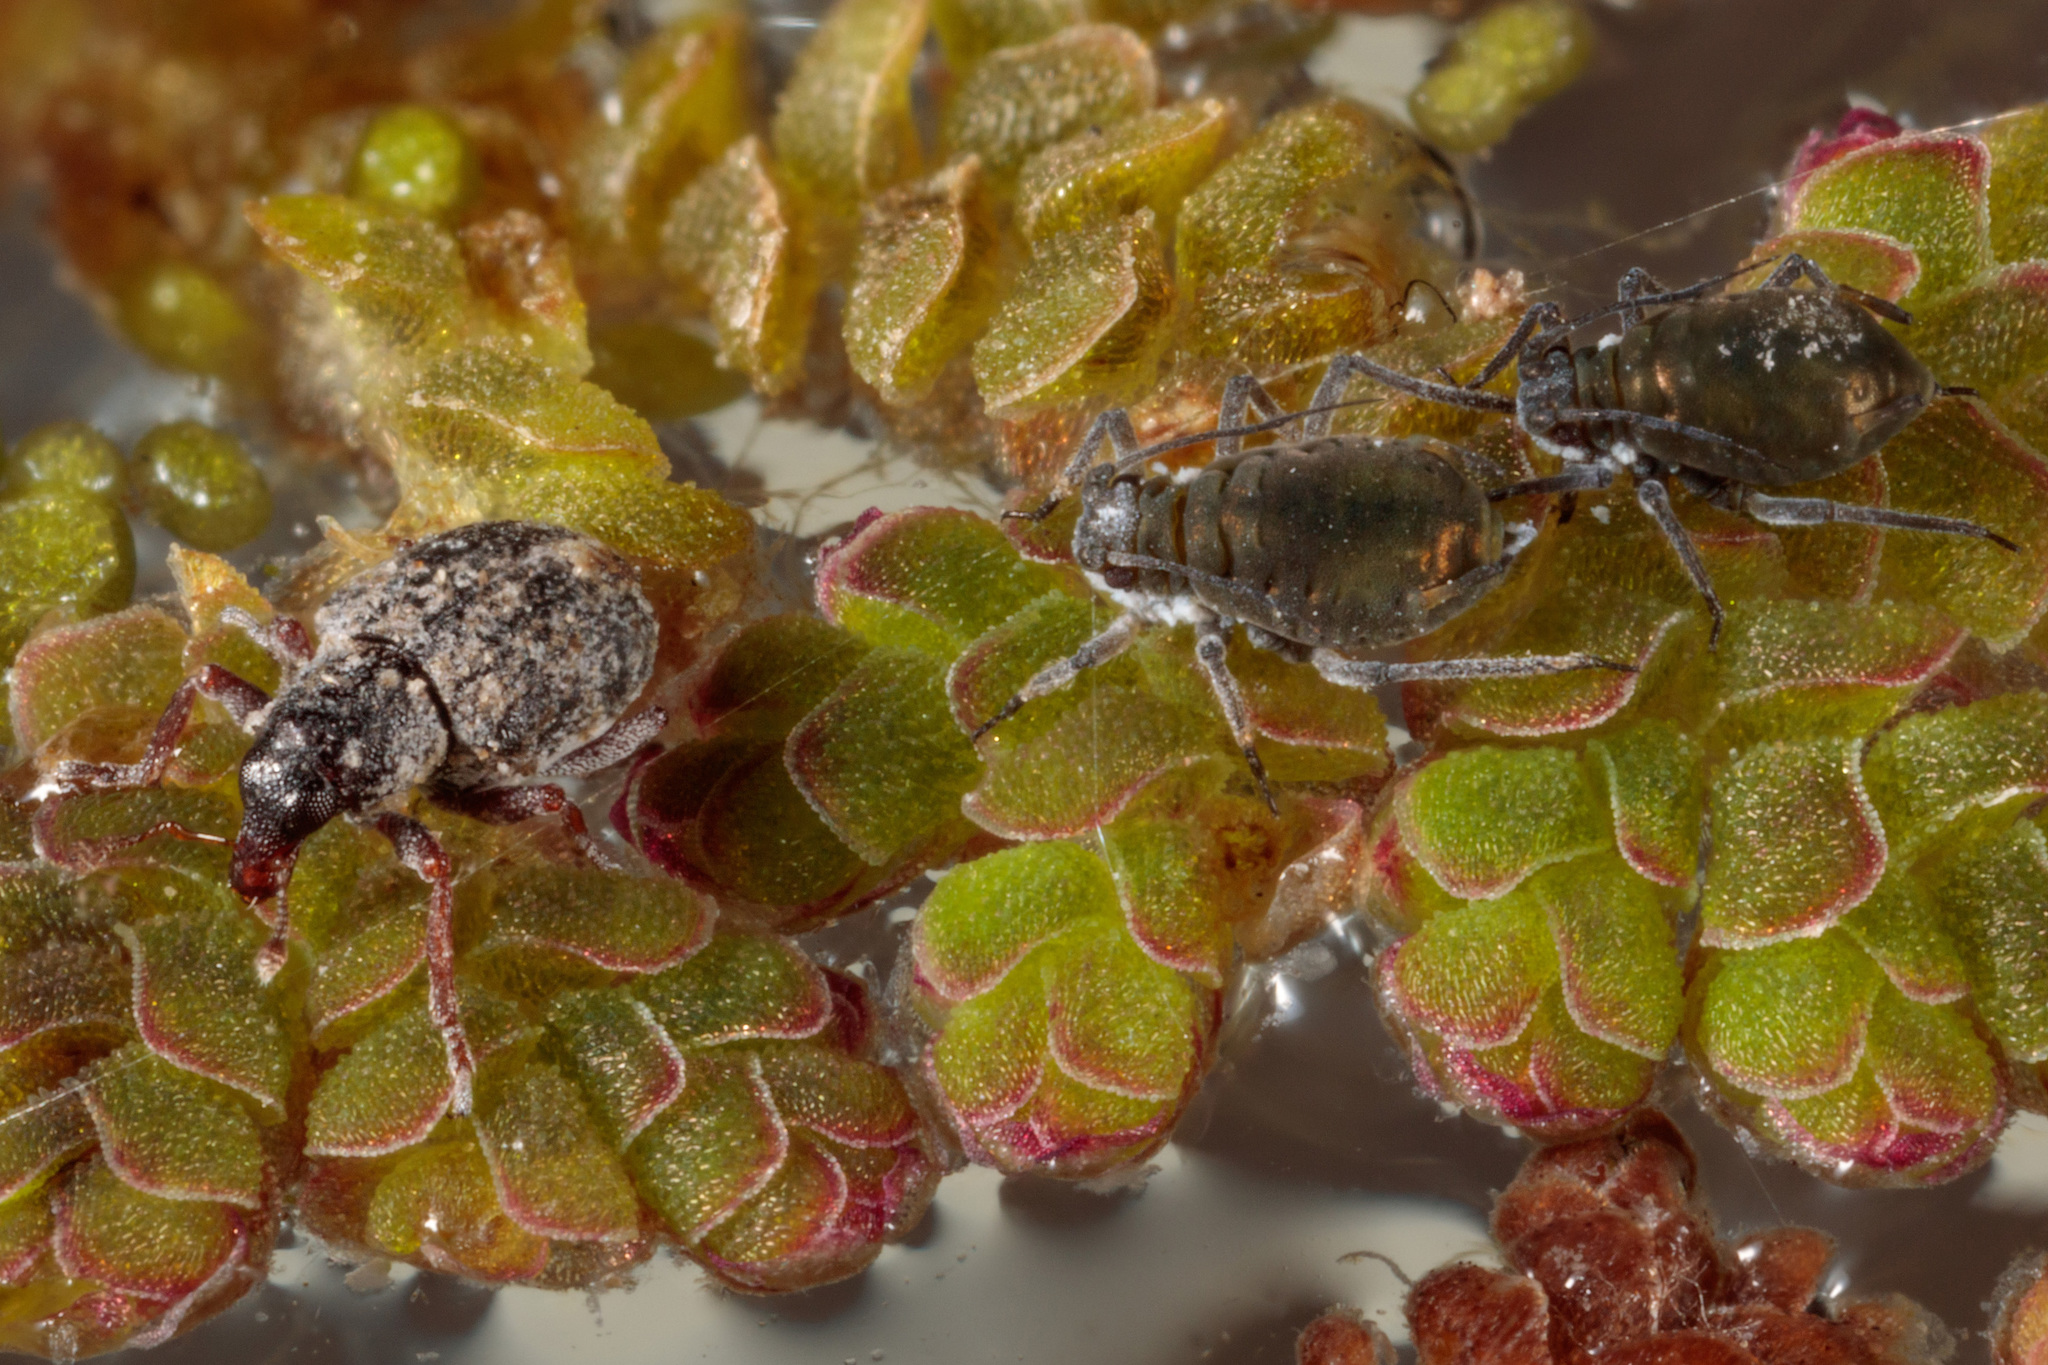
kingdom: Animalia
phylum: Arthropoda
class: Insecta
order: Coleoptera
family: Brachyceridae
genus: Stenopelmus
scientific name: Stenopelmus rufinasus
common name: Azolla weevil
